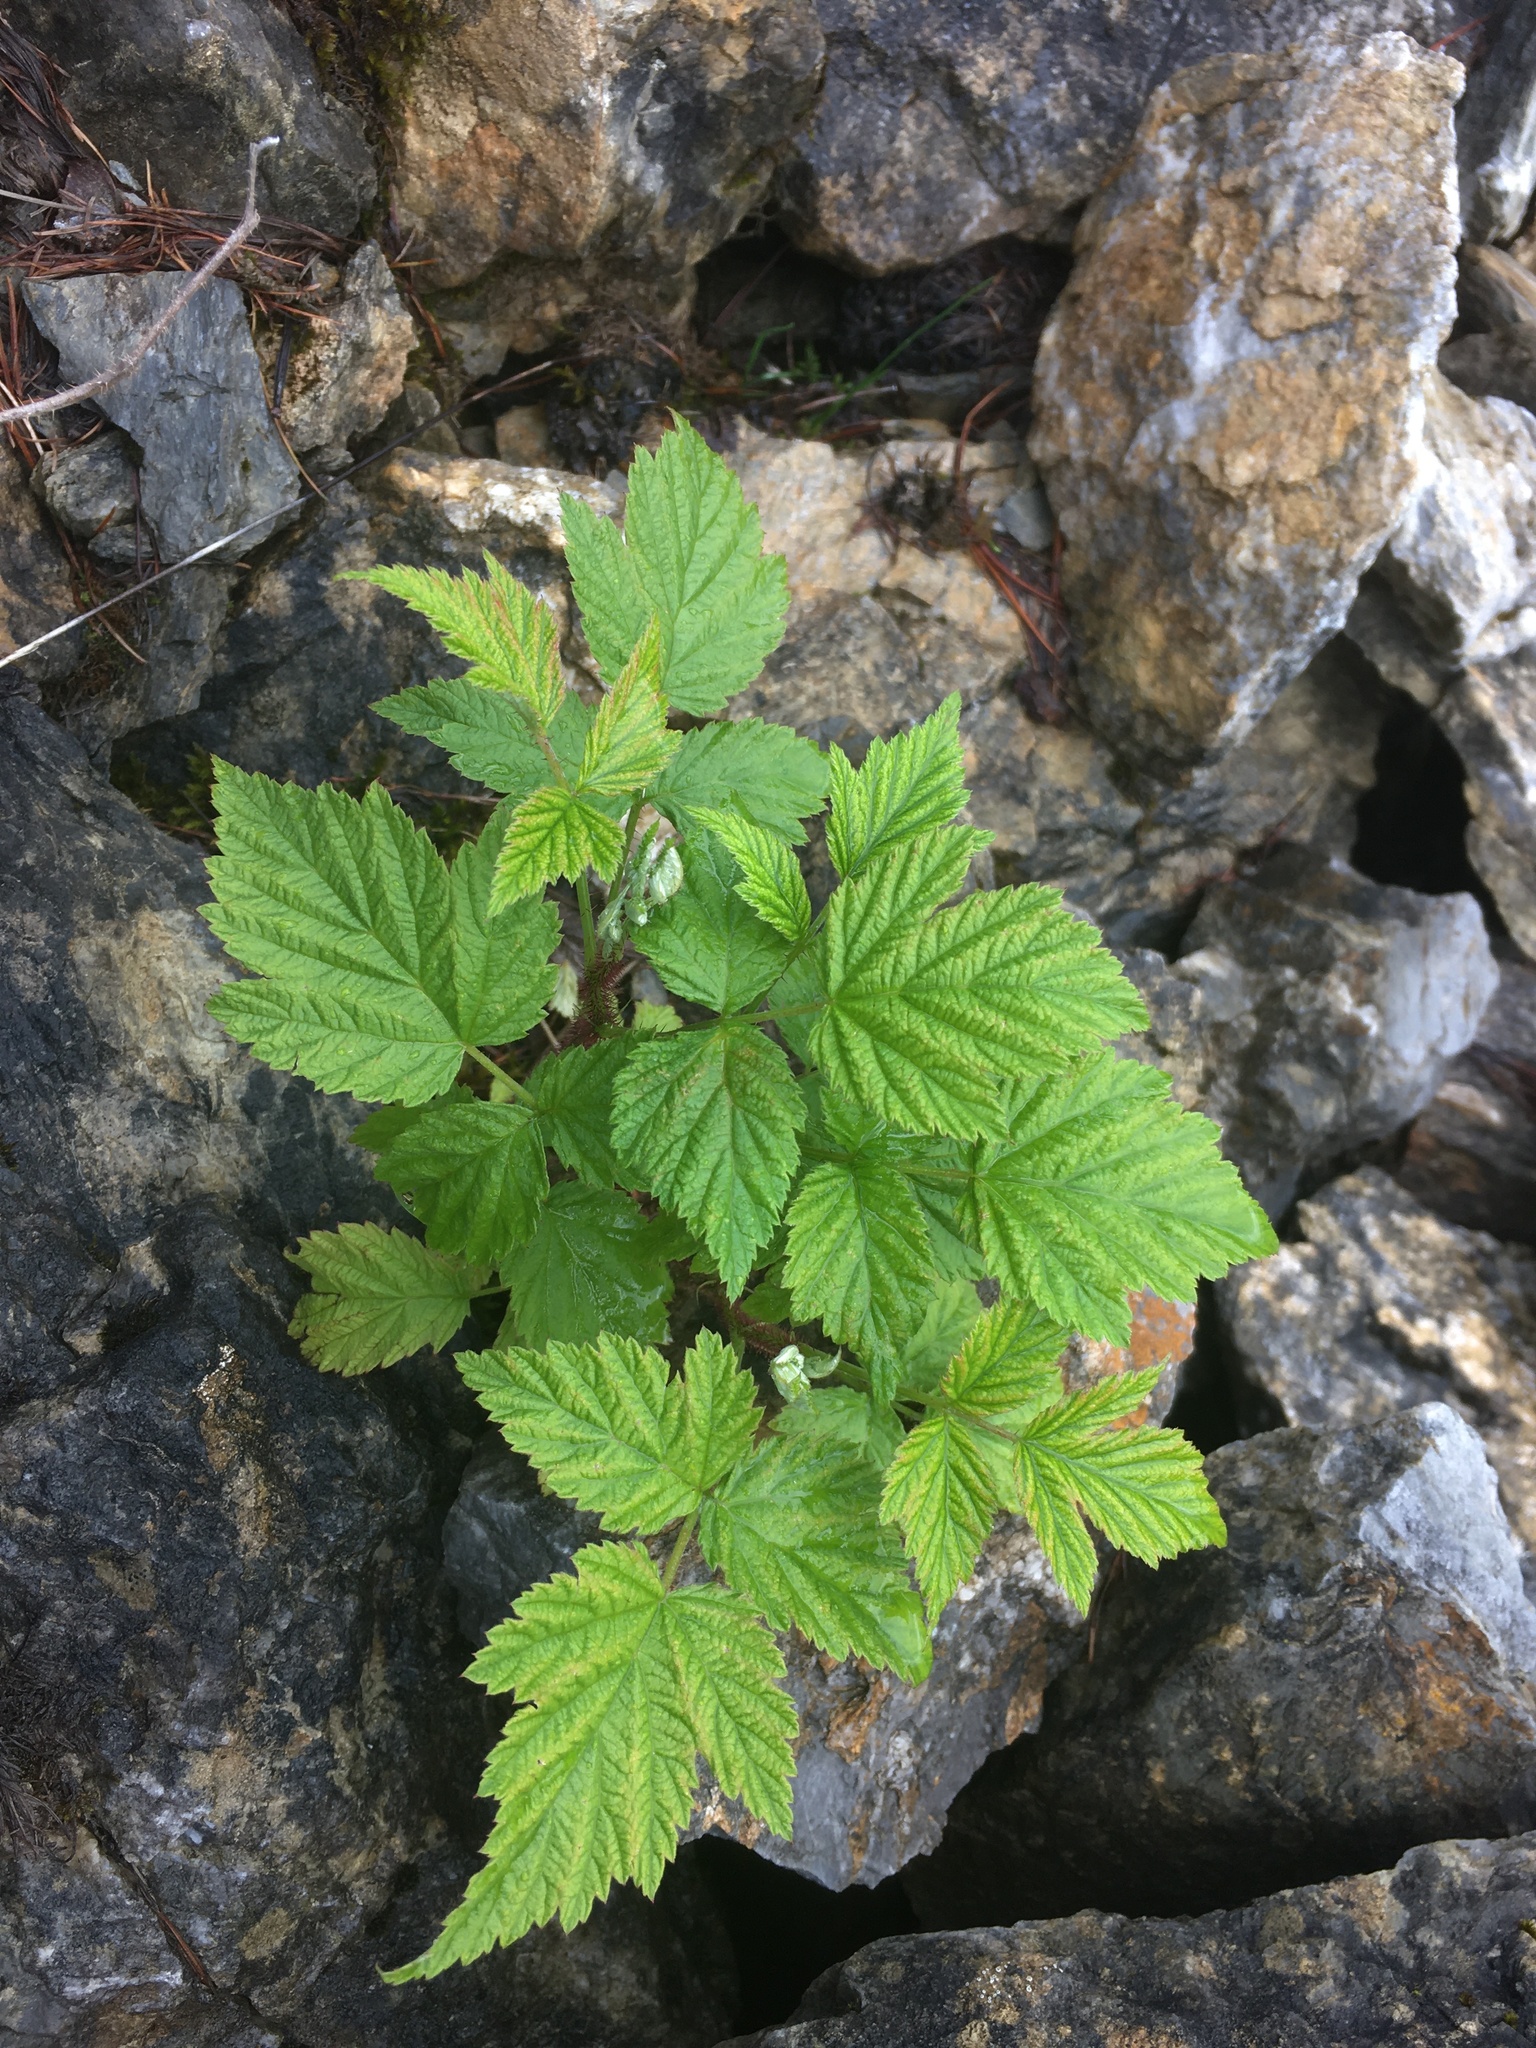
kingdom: Plantae
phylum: Tracheophyta
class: Magnoliopsida
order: Rosales
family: Rosaceae
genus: Rubus
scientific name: Rubus idaeus
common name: Raspberry
